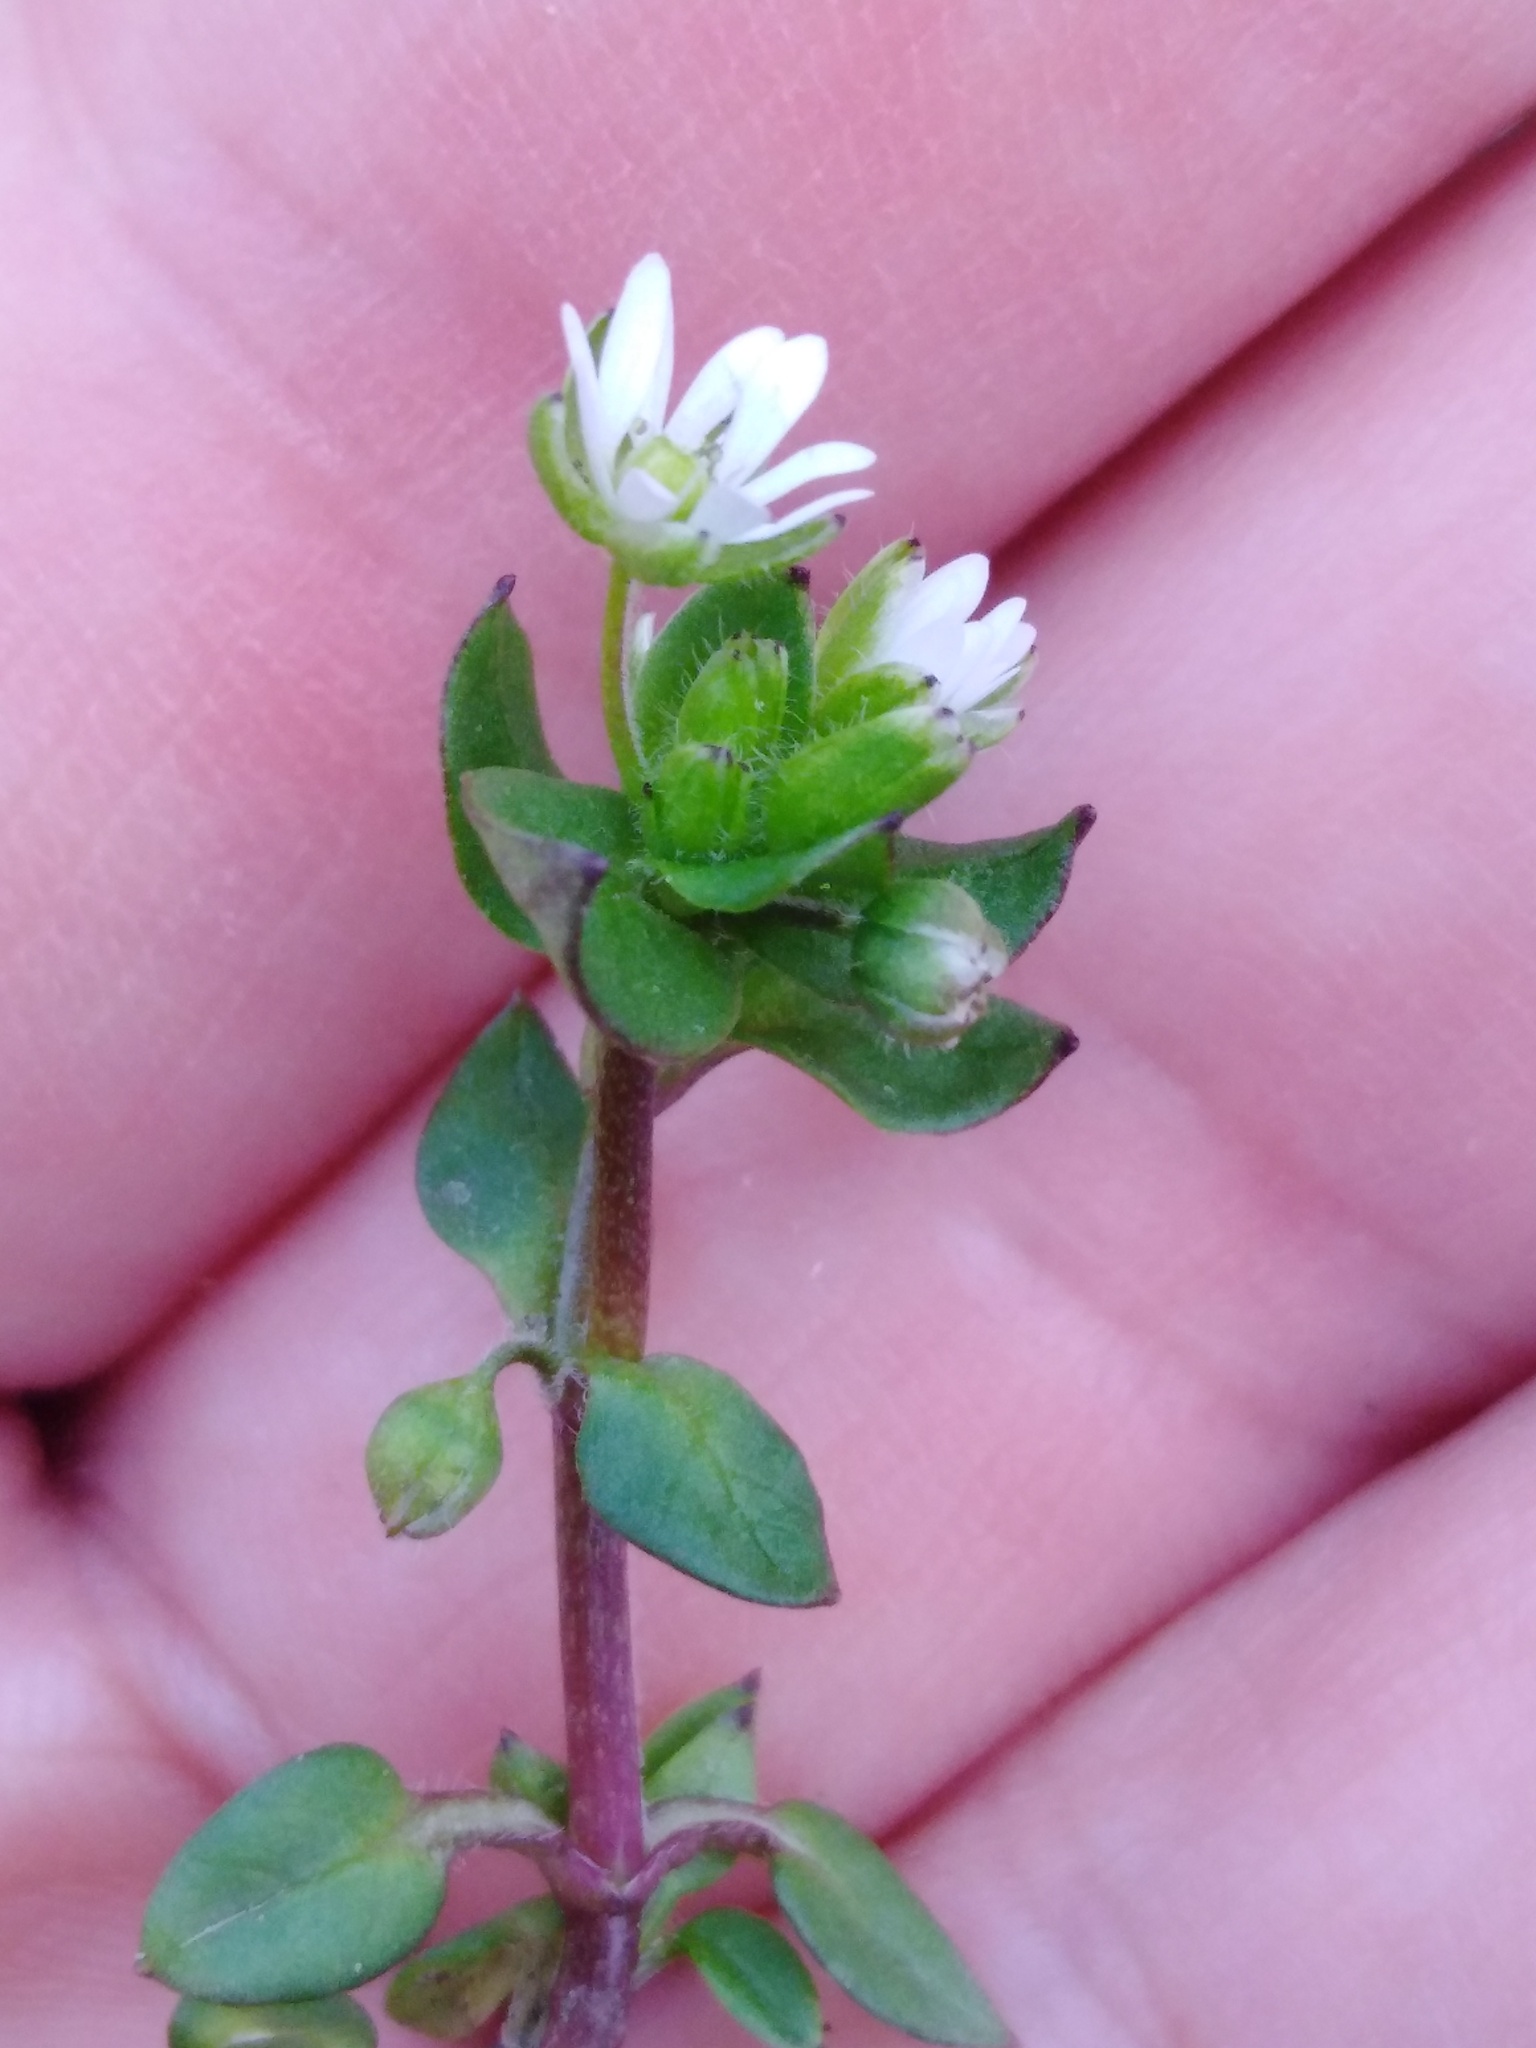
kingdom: Plantae
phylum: Tracheophyta
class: Magnoliopsida
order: Caryophyllales
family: Caryophyllaceae
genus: Stellaria
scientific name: Stellaria media
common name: Common chickweed
